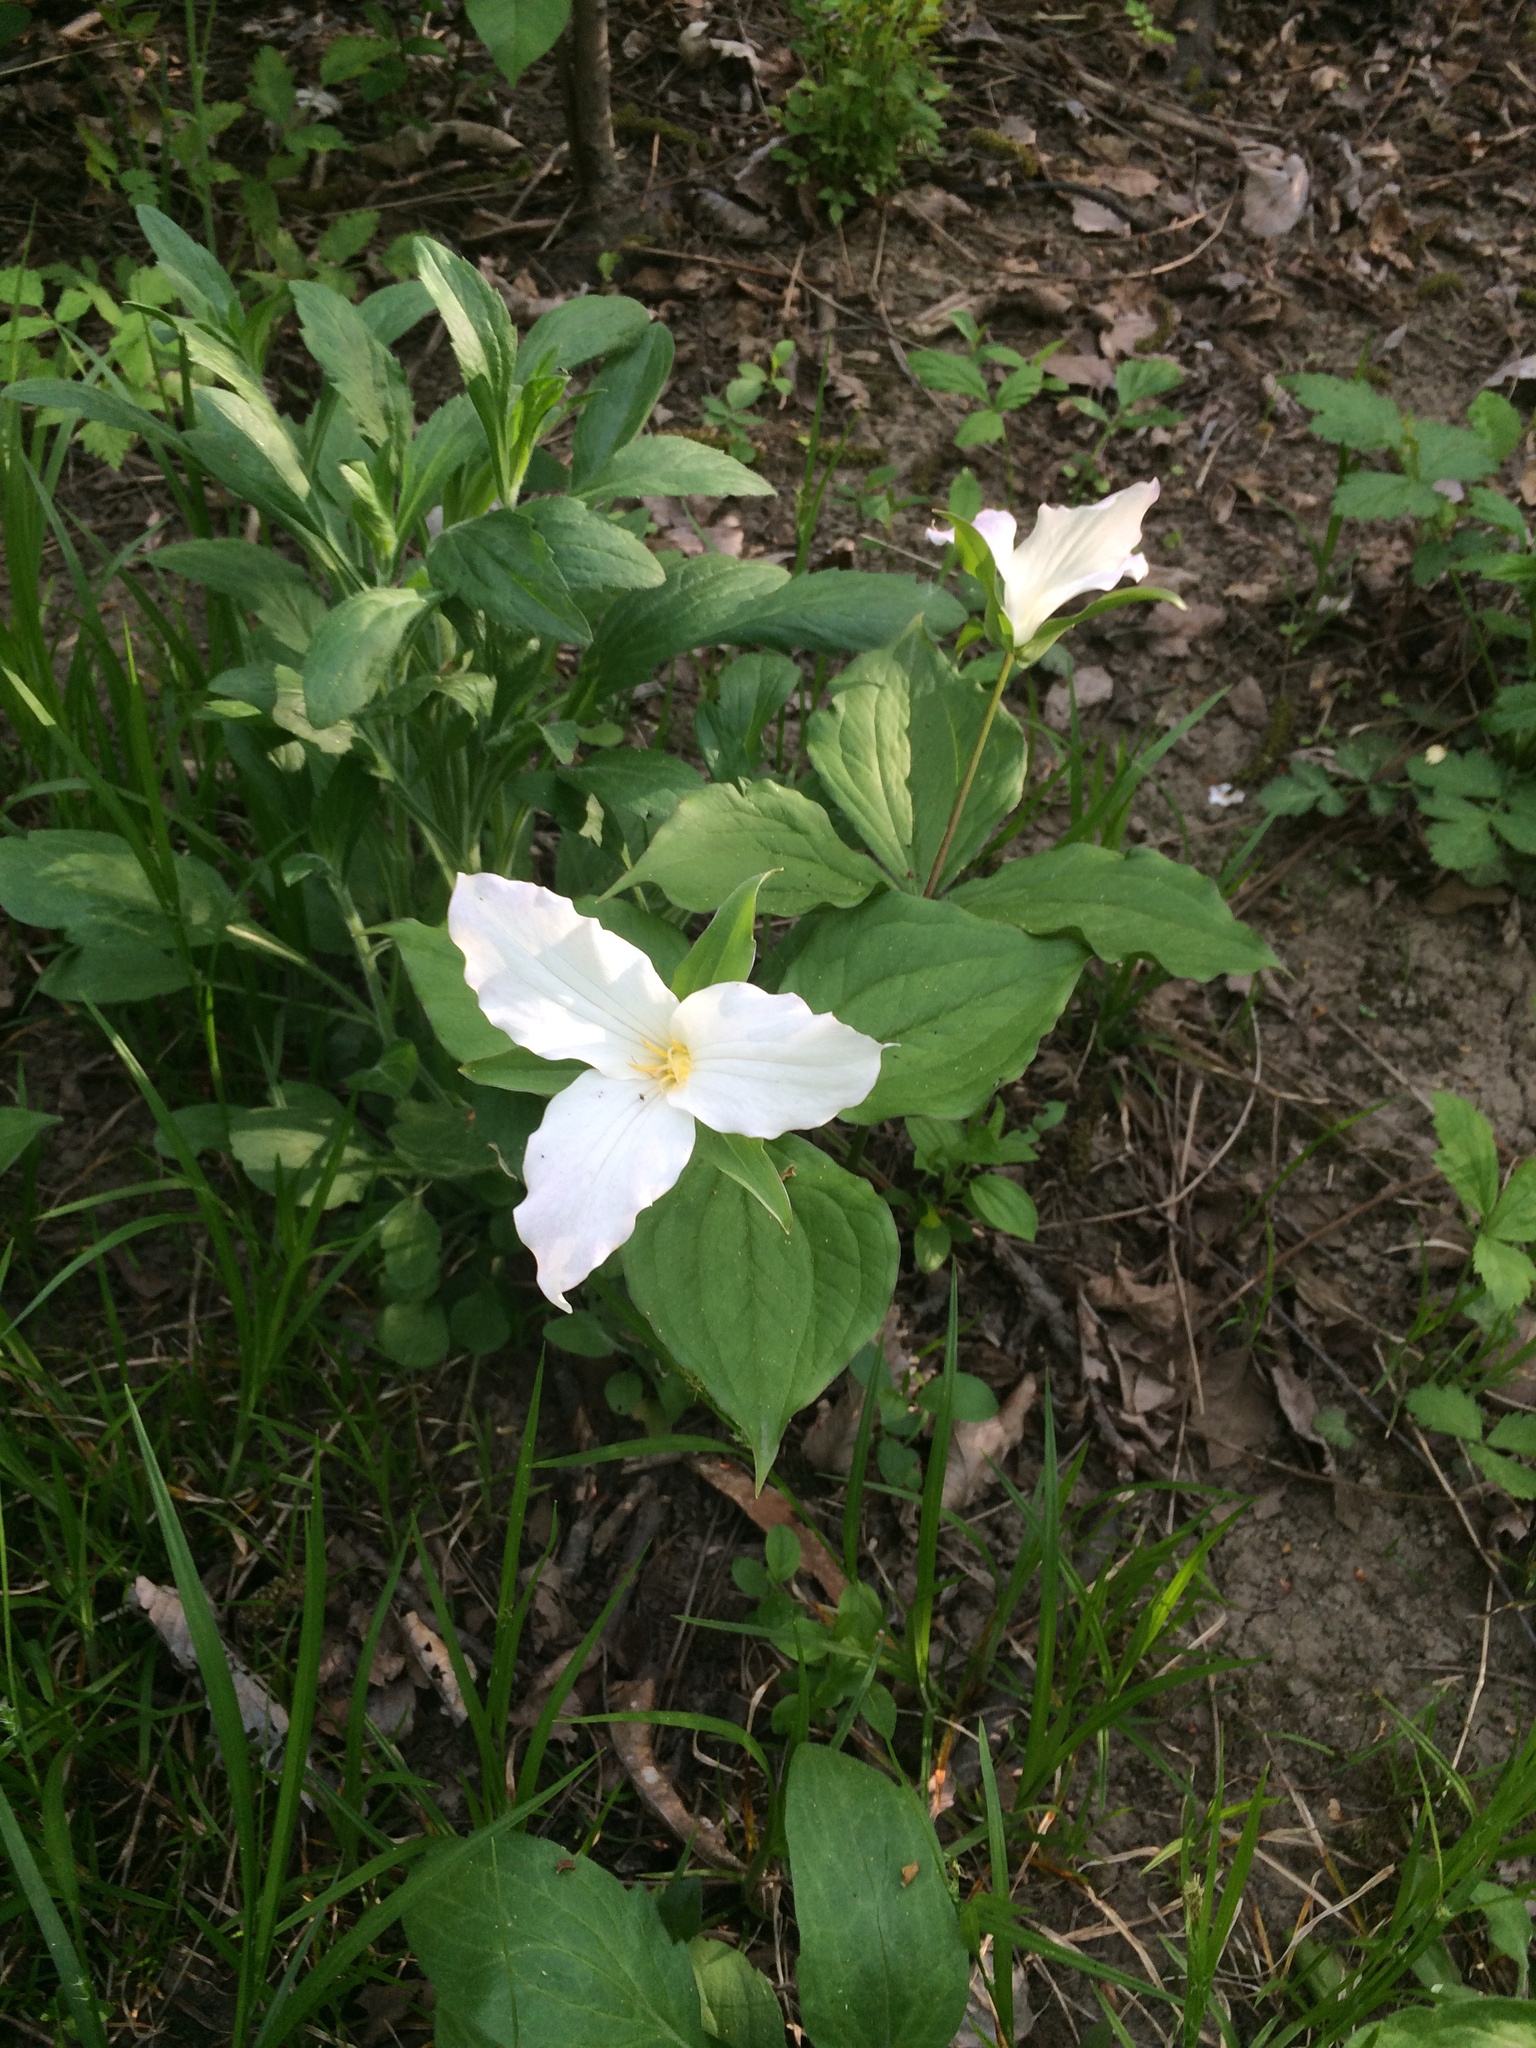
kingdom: Plantae
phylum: Tracheophyta
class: Liliopsida
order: Liliales
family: Melanthiaceae
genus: Trillium
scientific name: Trillium grandiflorum
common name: Great white trillium
